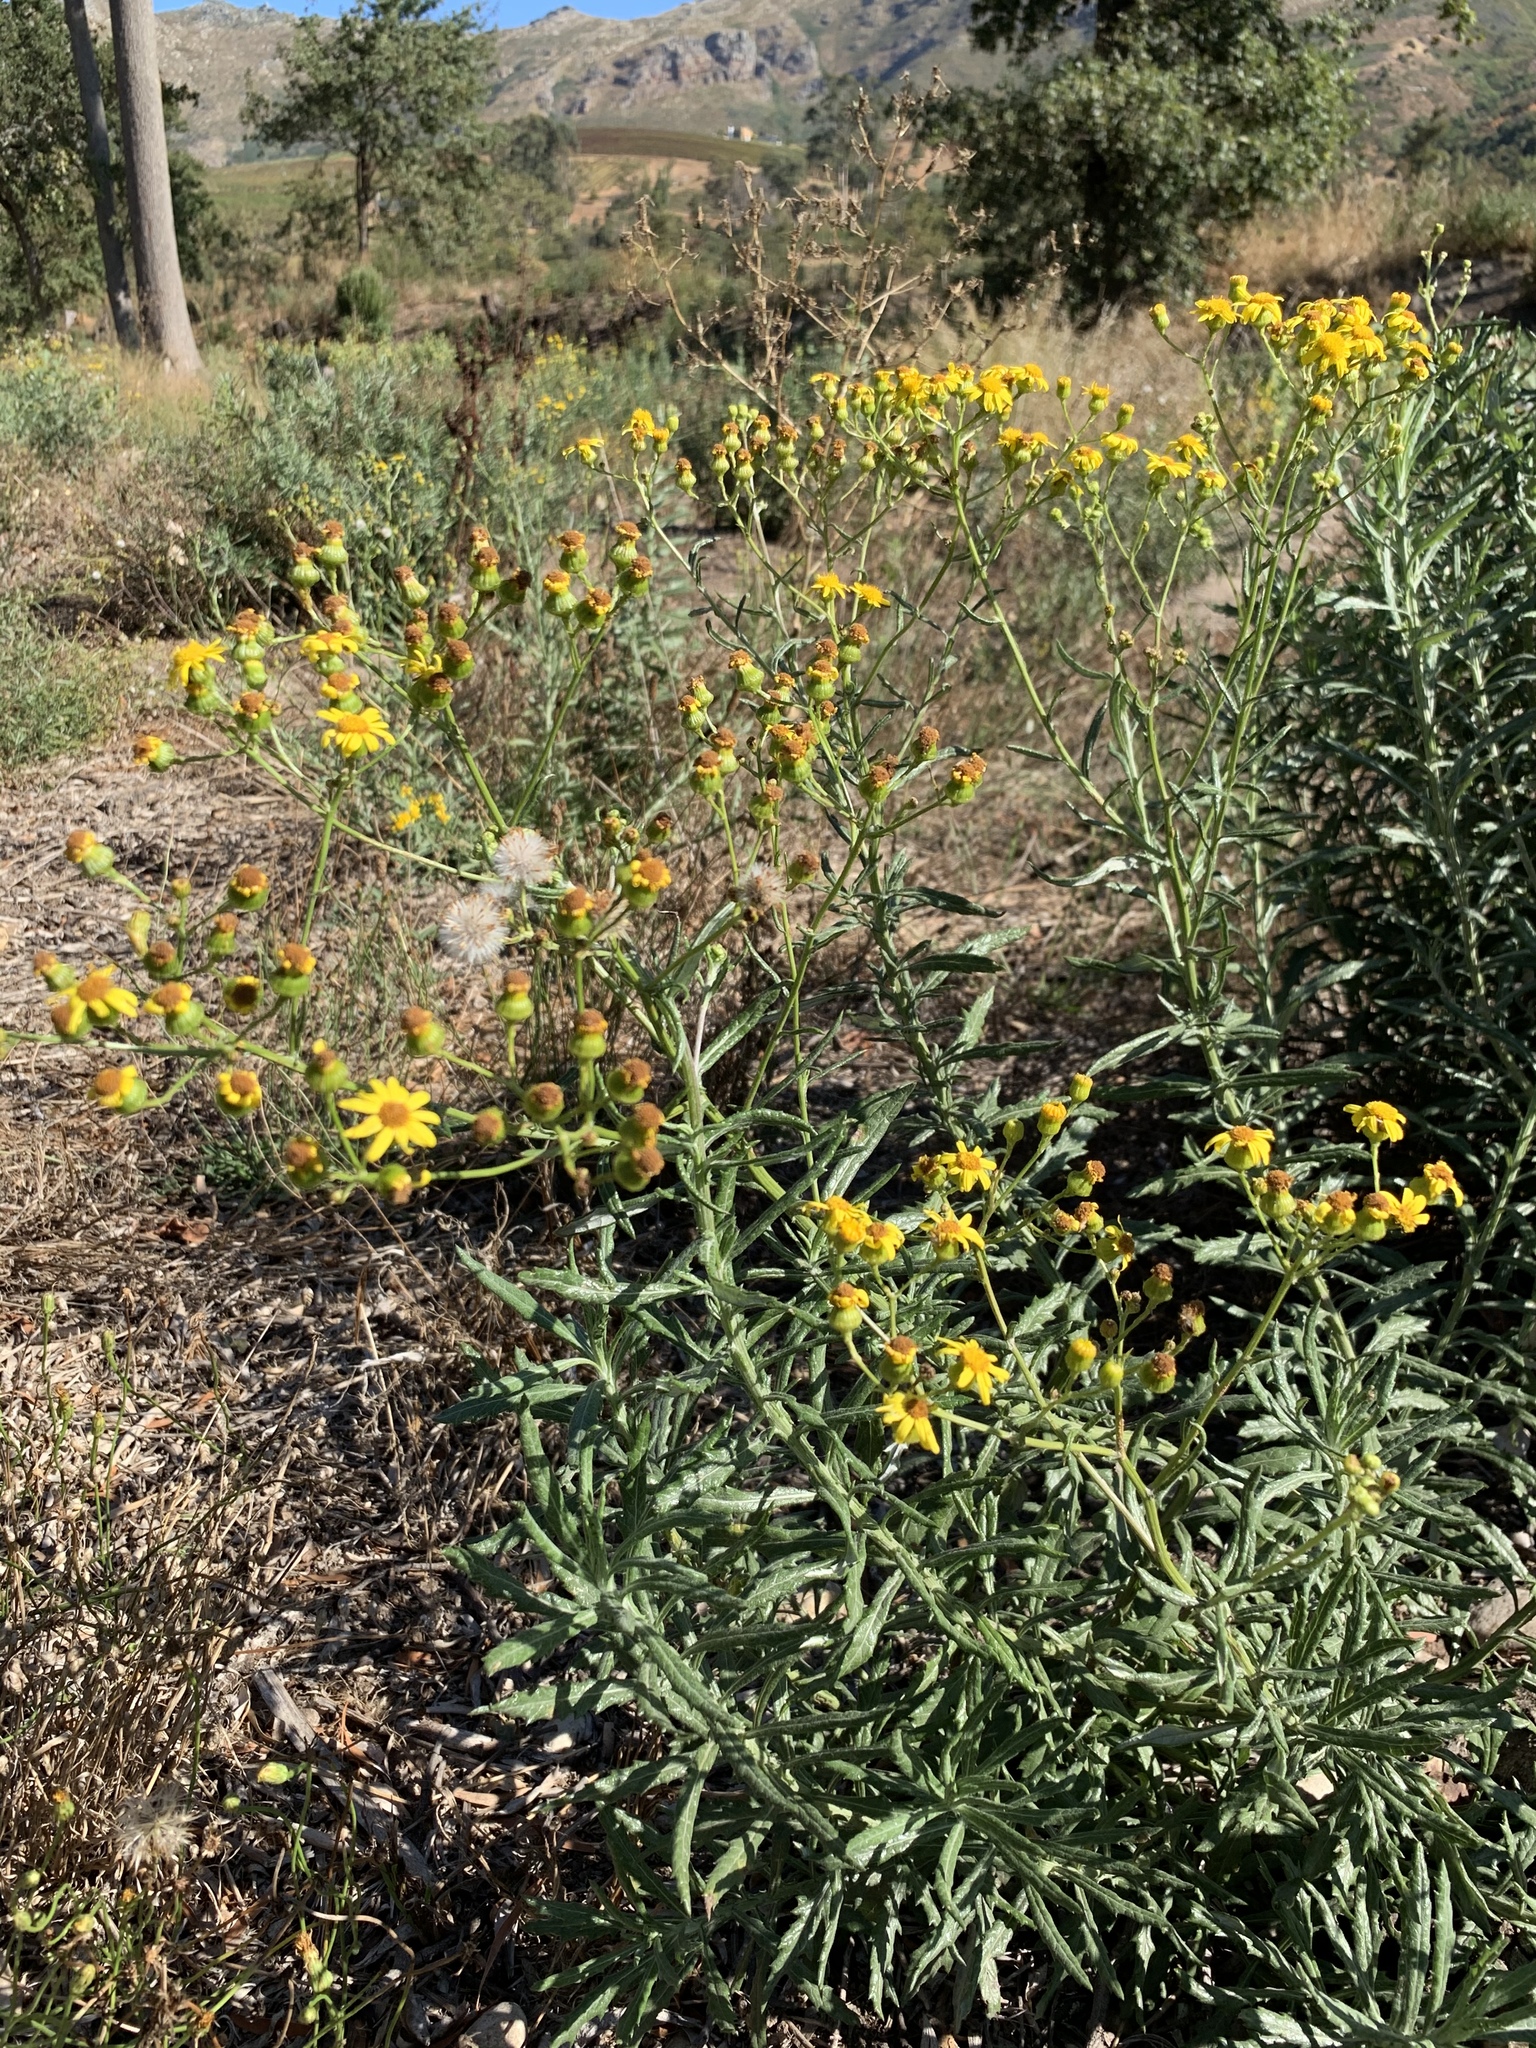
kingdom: Plantae
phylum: Tracheophyta
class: Magnoliopsida
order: Asterales
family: Asteraceae
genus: Senecio
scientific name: Senecio pterophorus
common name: Shoddy ragwort
